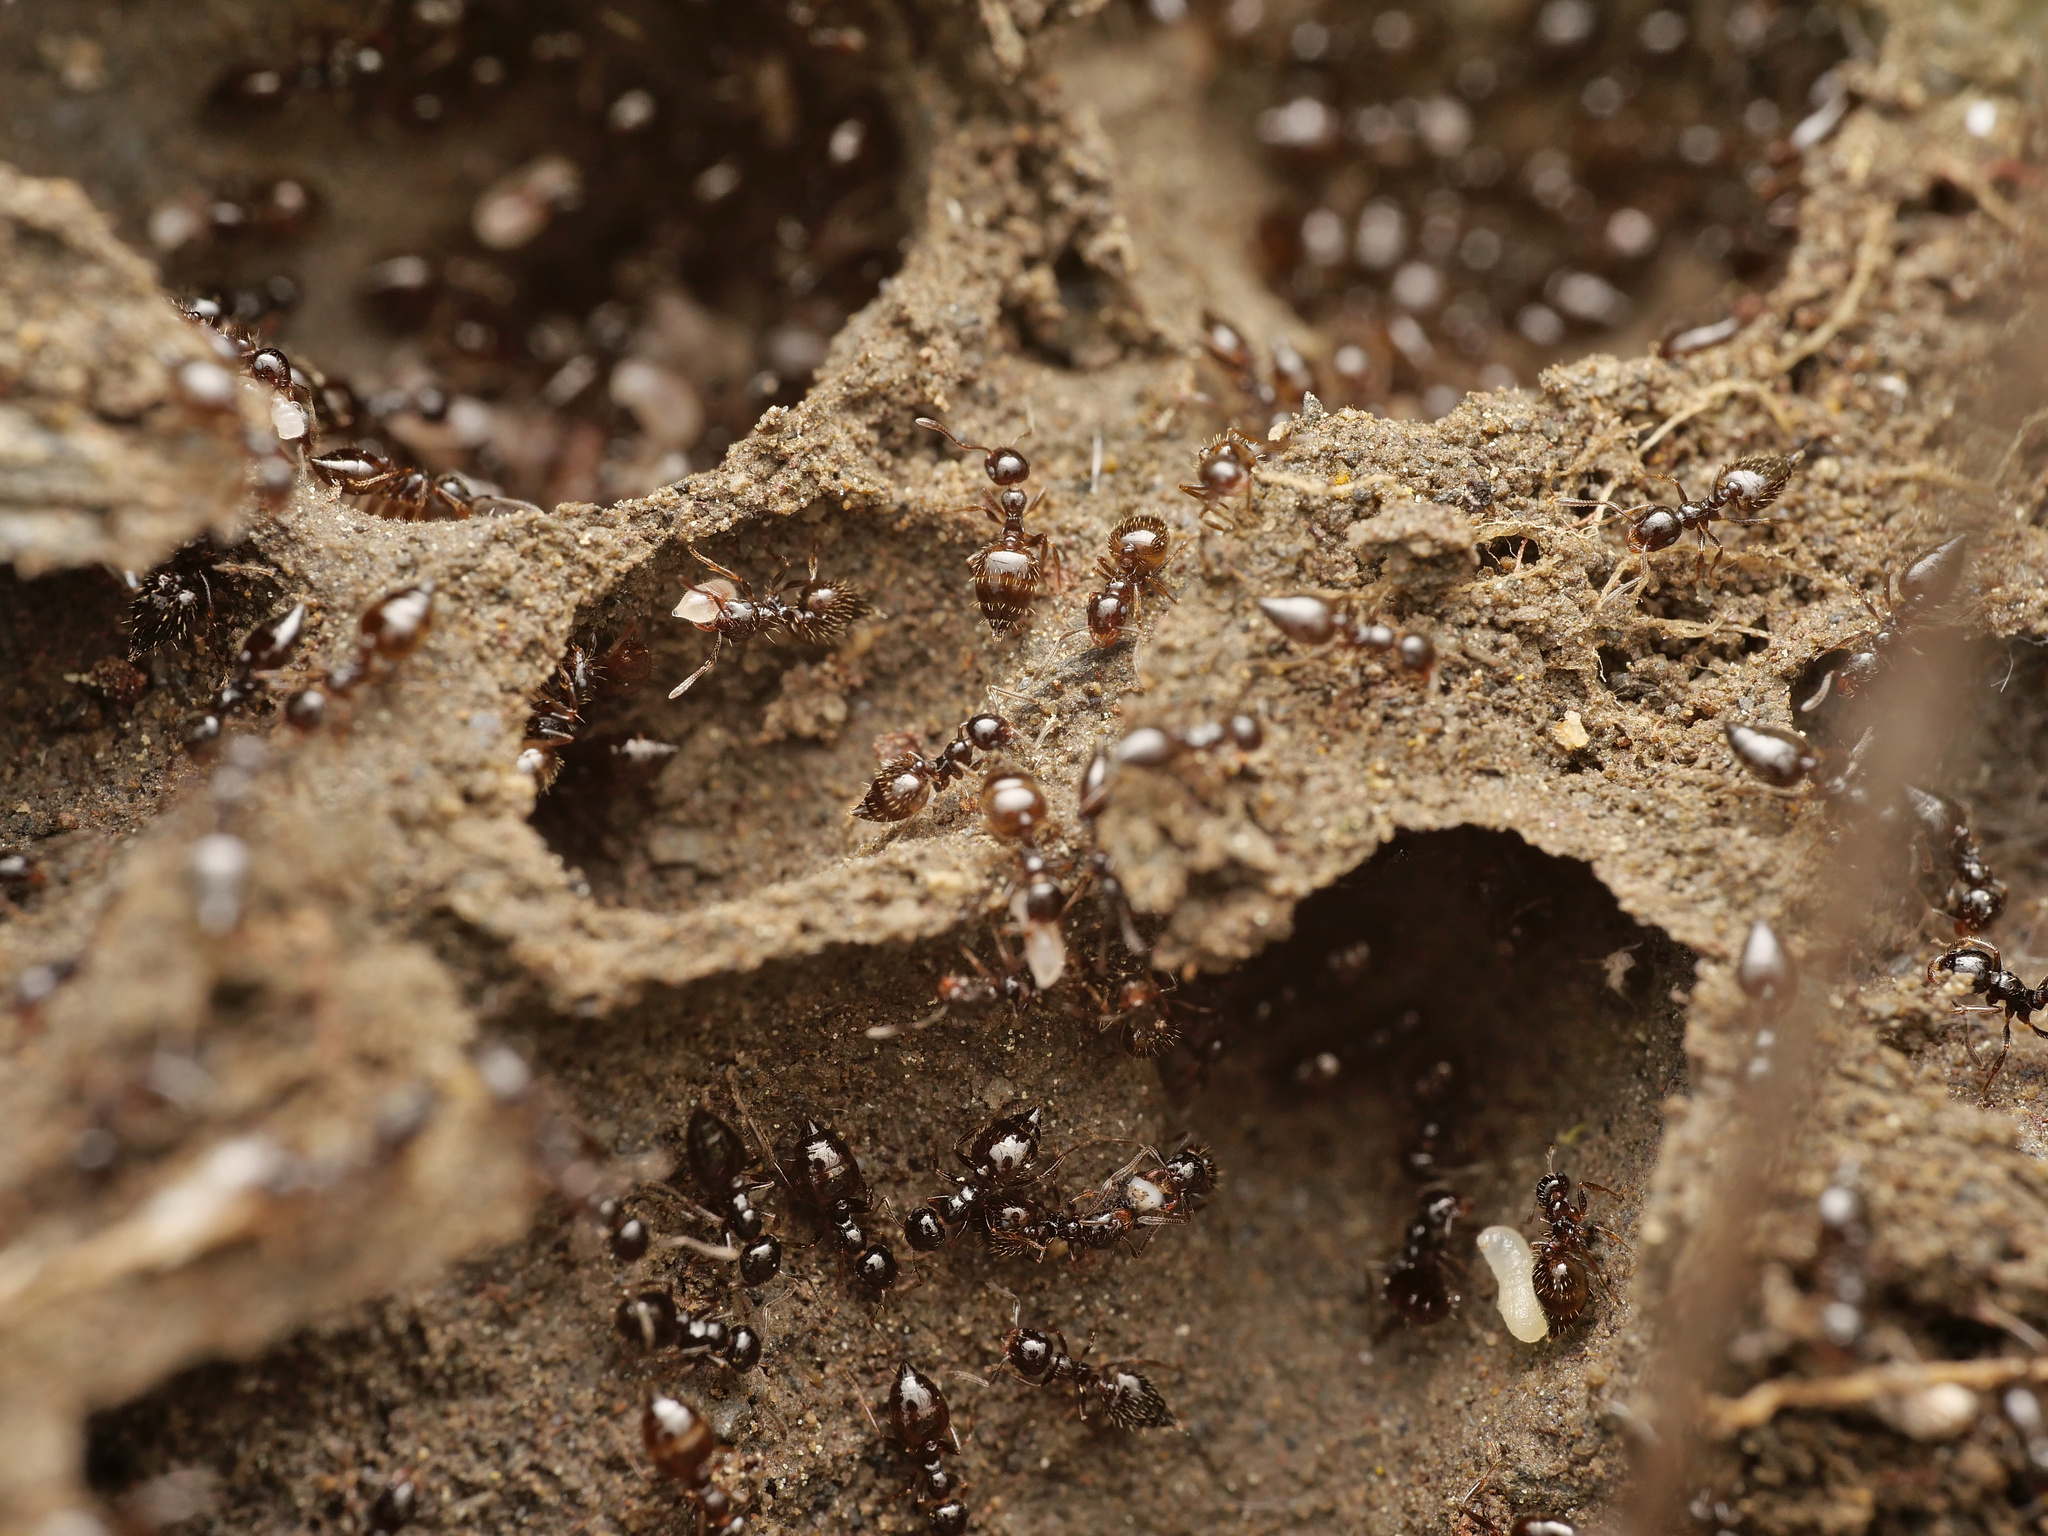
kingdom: Animalia
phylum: Arthropoda
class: Insecta
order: Hymenoptera
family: Formicidae
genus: Crematogaster
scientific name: Crematogaster sordidula
